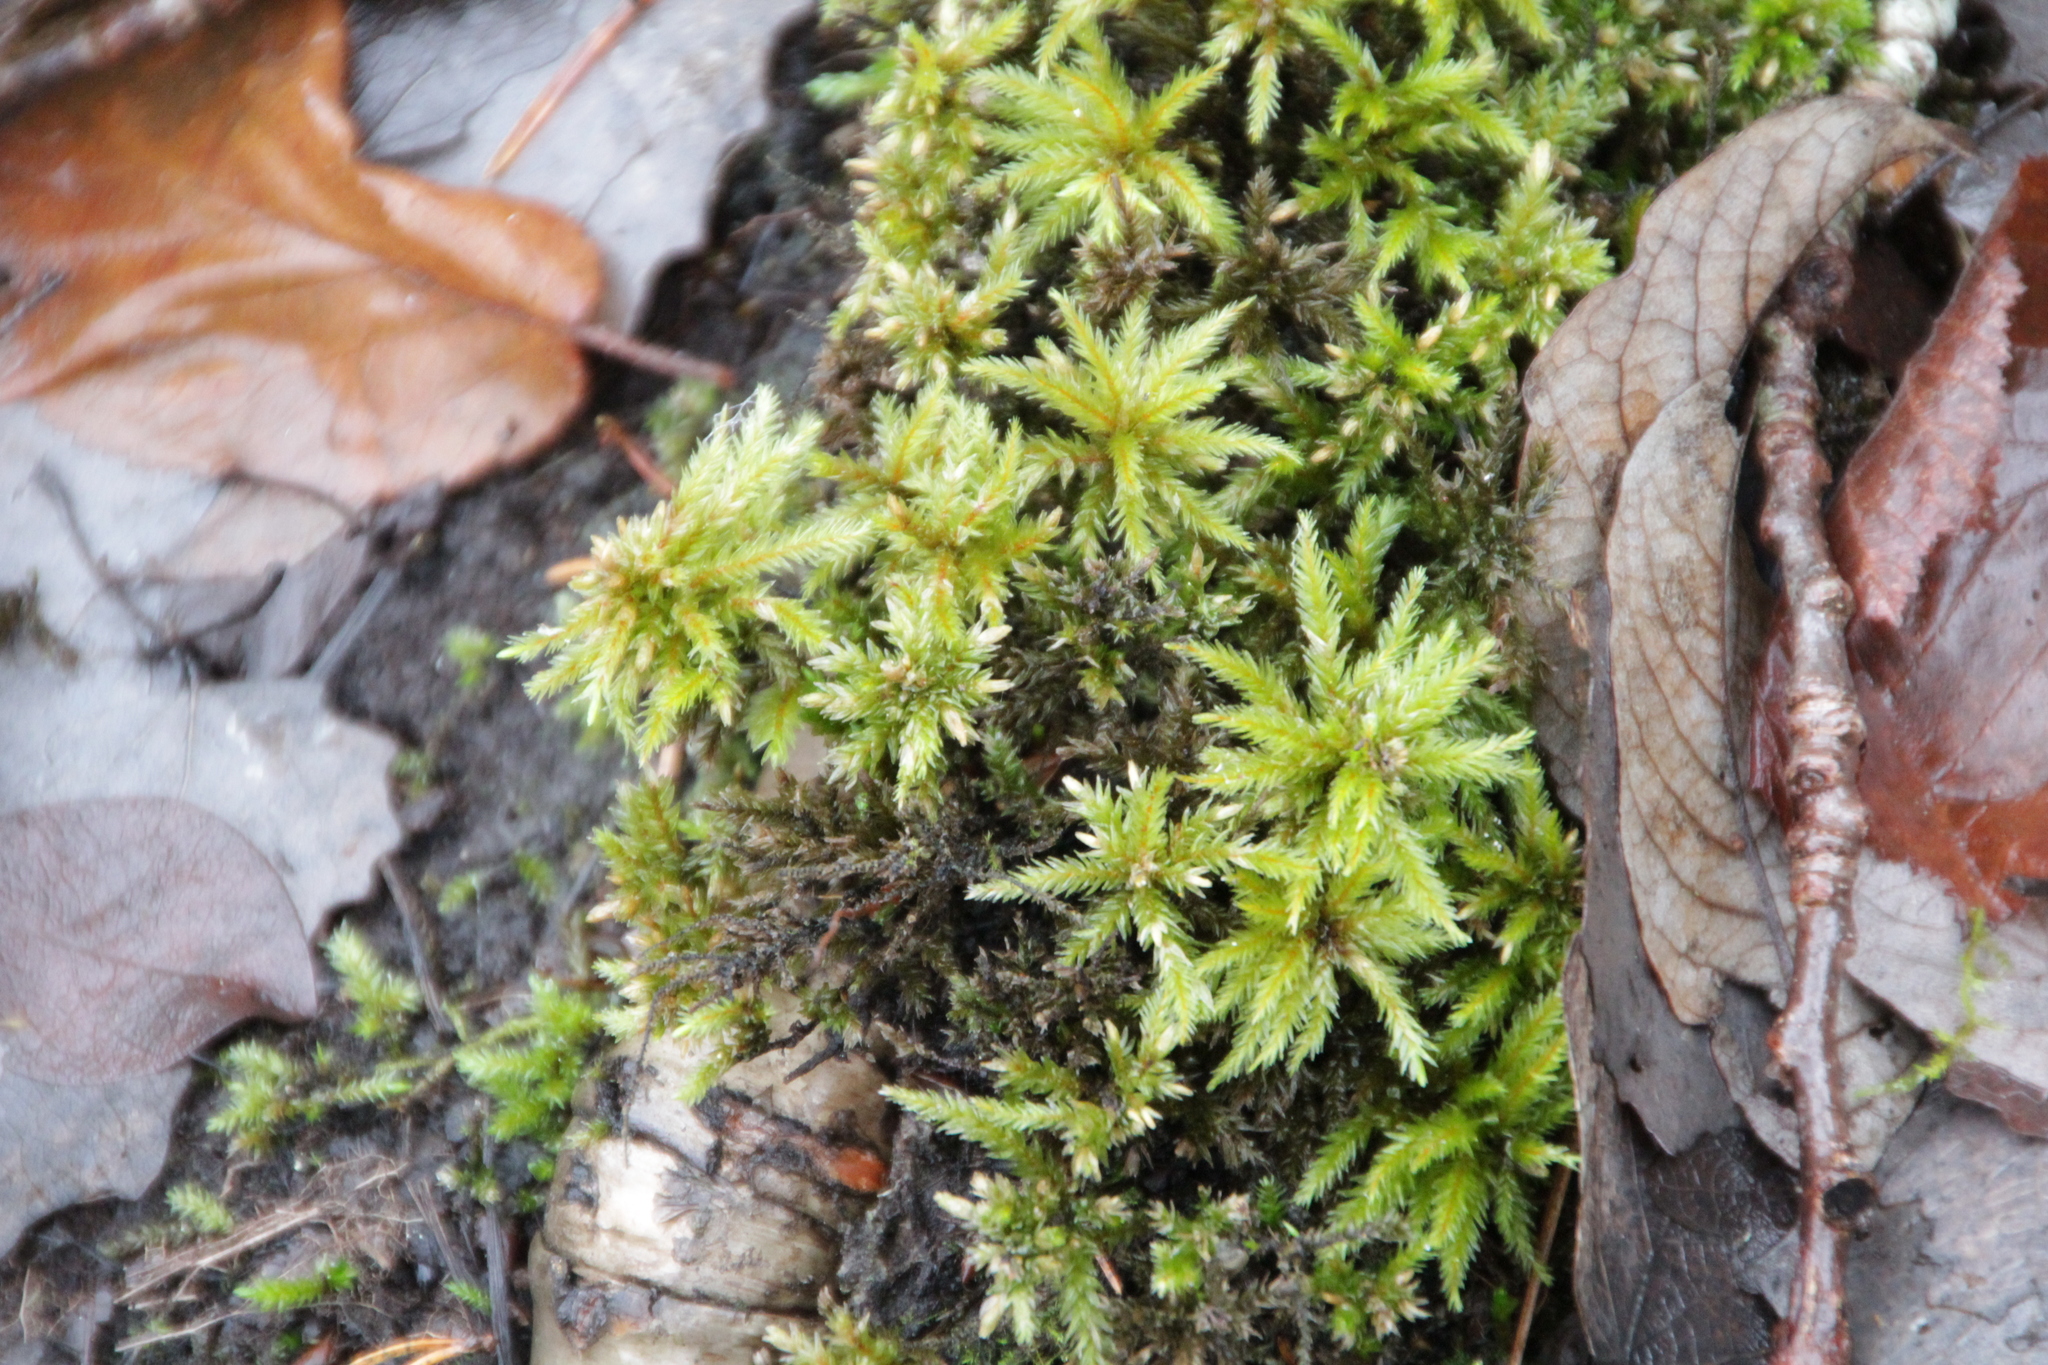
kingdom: Plantae
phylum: Bryophyta
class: Bryopsida
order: Hypnales
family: Climaciaceae
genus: Climacium
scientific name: Climacium dendroides
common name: Northern tree moss
